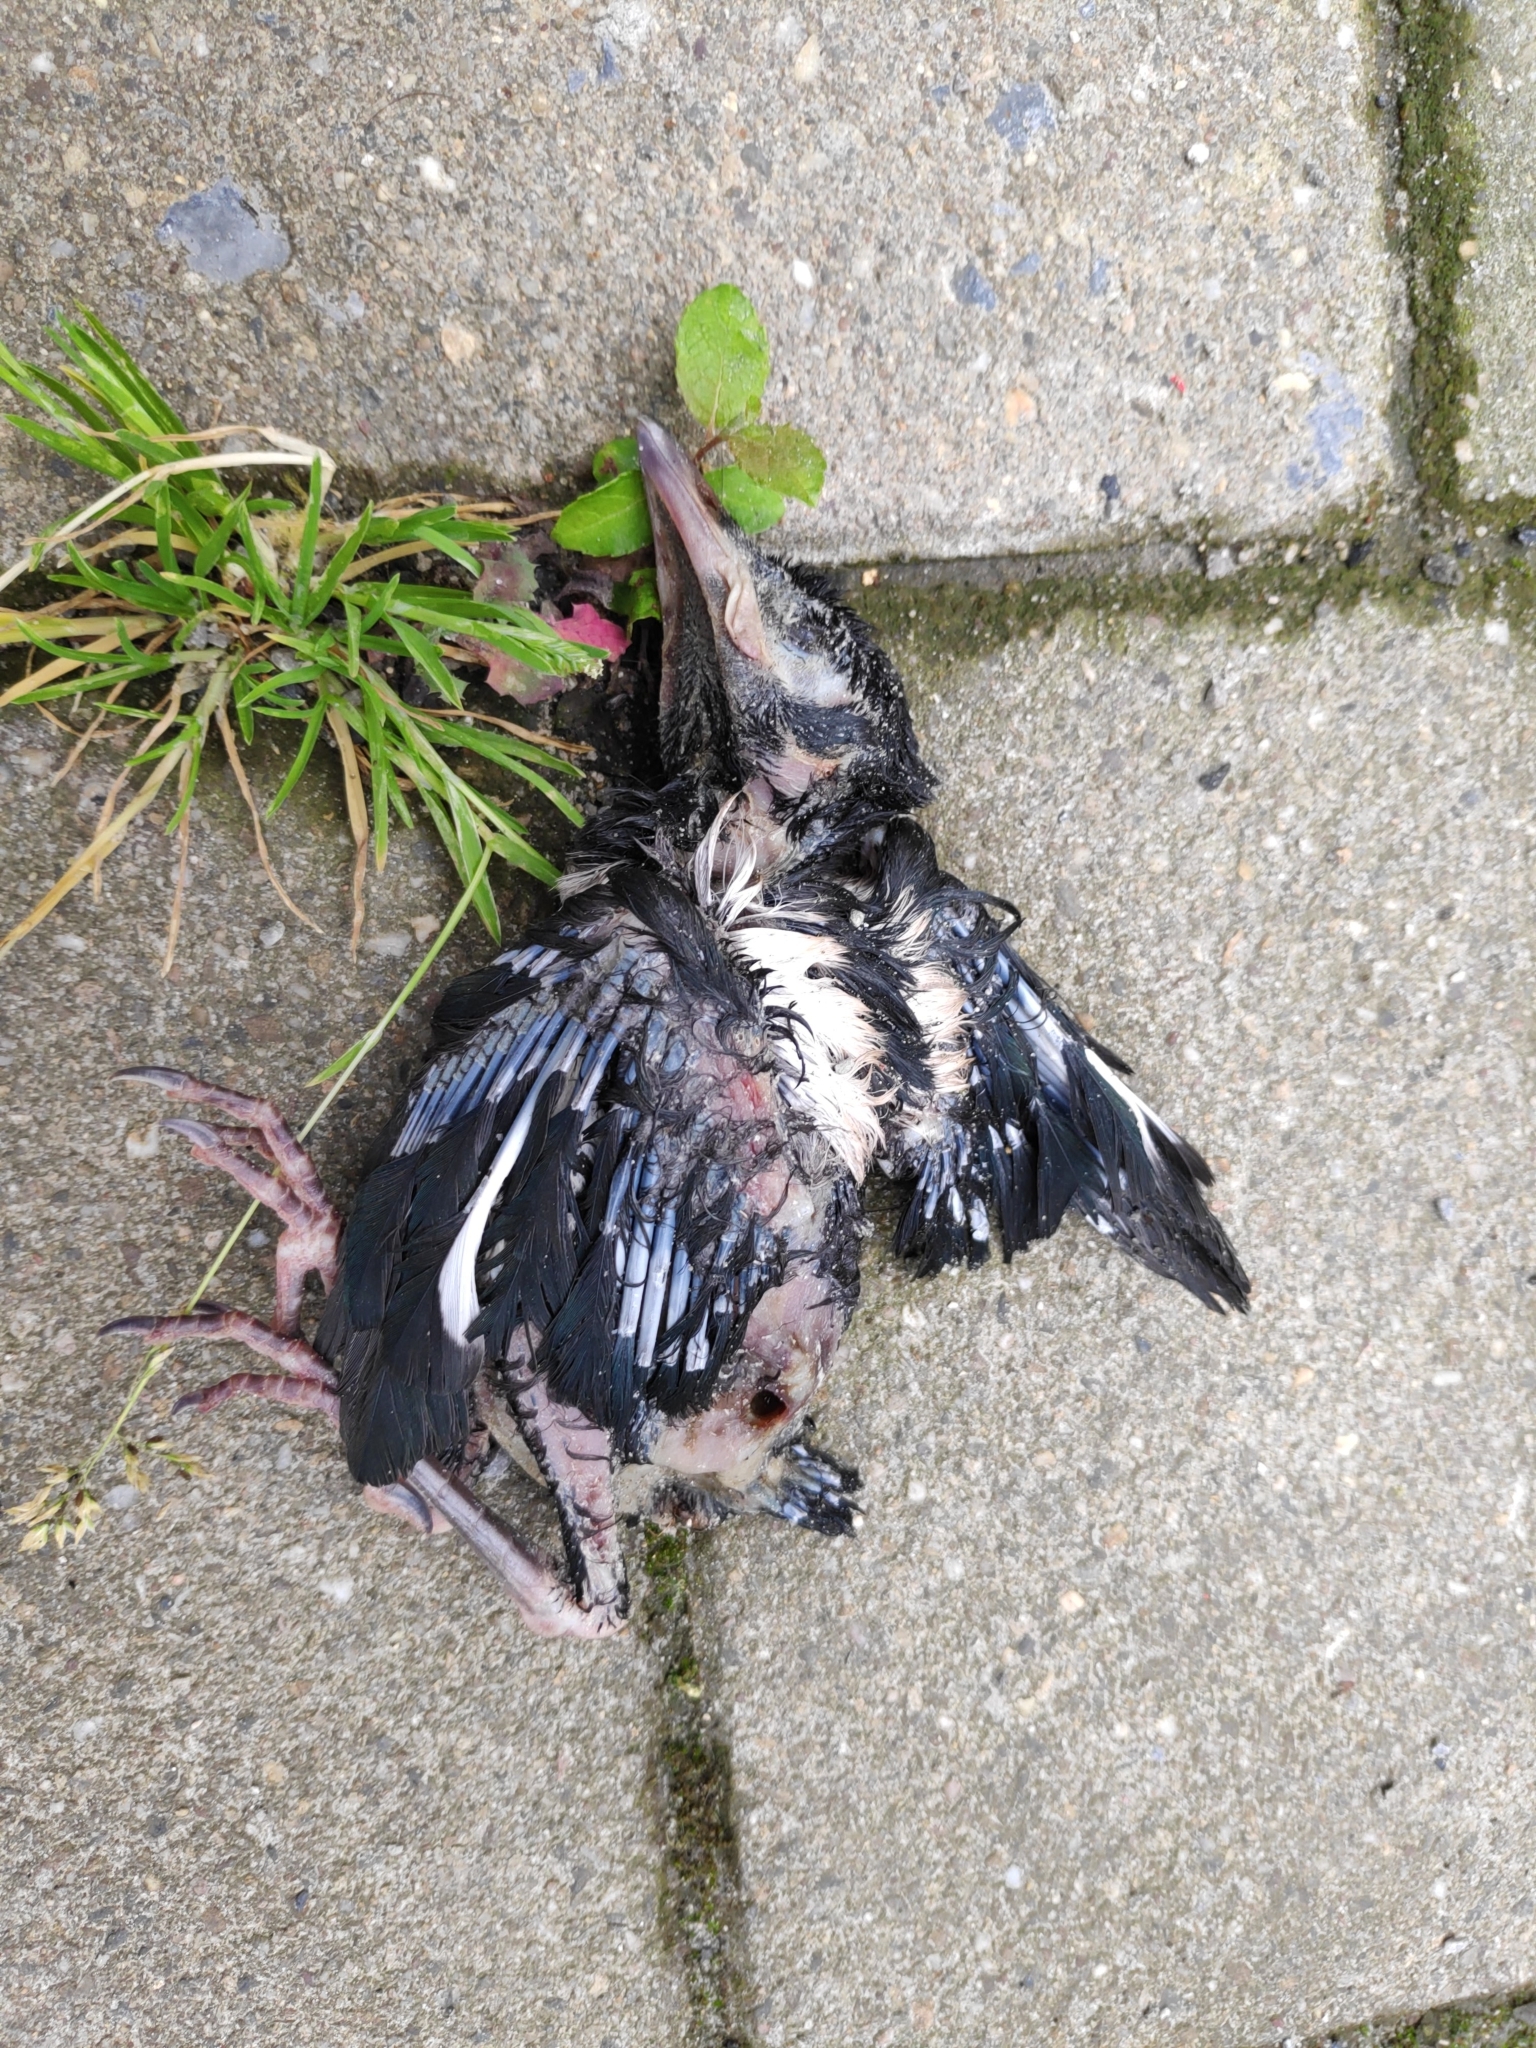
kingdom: Animalia
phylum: Chordata
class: Aves
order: Passeriformes
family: Corvidae
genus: Pica
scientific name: Pica pica
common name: Eurasian magpie
